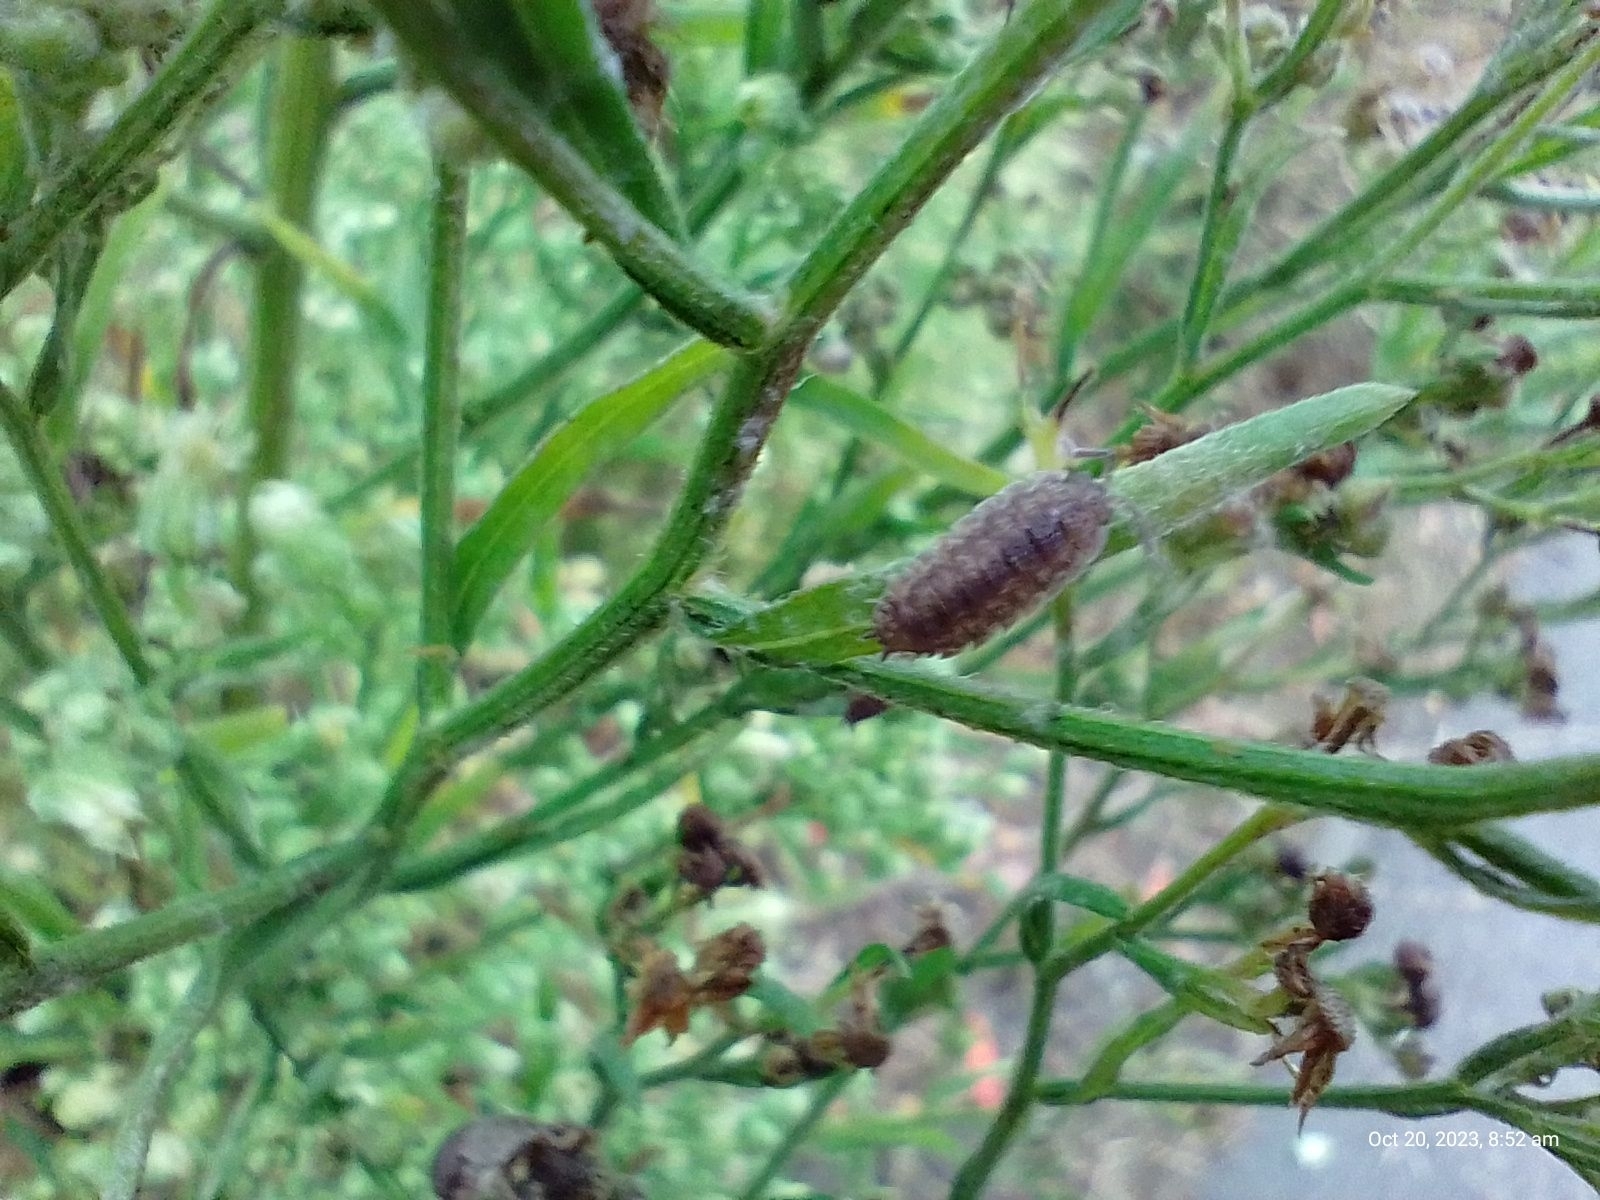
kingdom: Animalia
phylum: Arthropoda
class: Malacostraca
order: Isopoda
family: Porcellionidae
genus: Porcellio
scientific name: Porcellio scaber
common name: Common rough woodlouse
